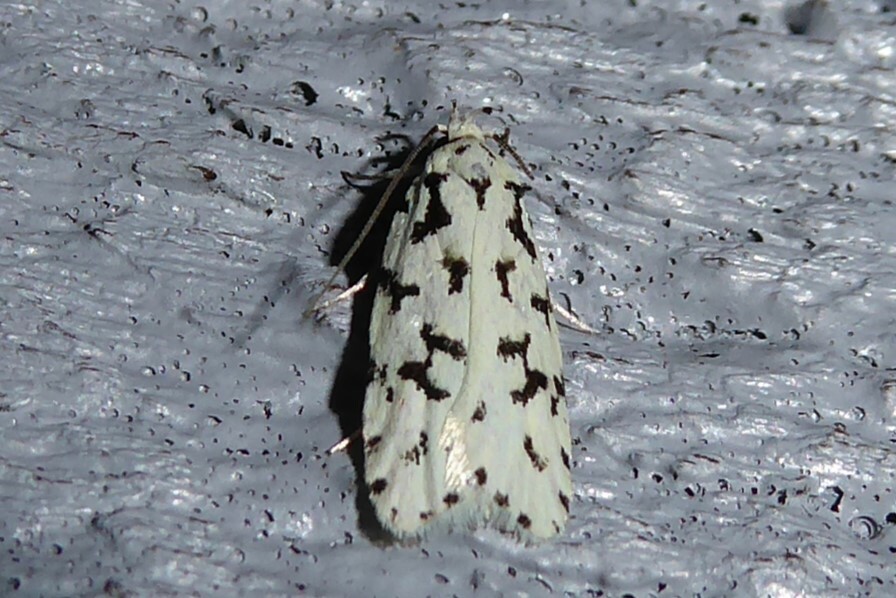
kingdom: Animalia
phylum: Arthropoda
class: Insecta
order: Lepidoptera
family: Oecophoridae
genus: Izatha
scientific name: Izatha huttoni
